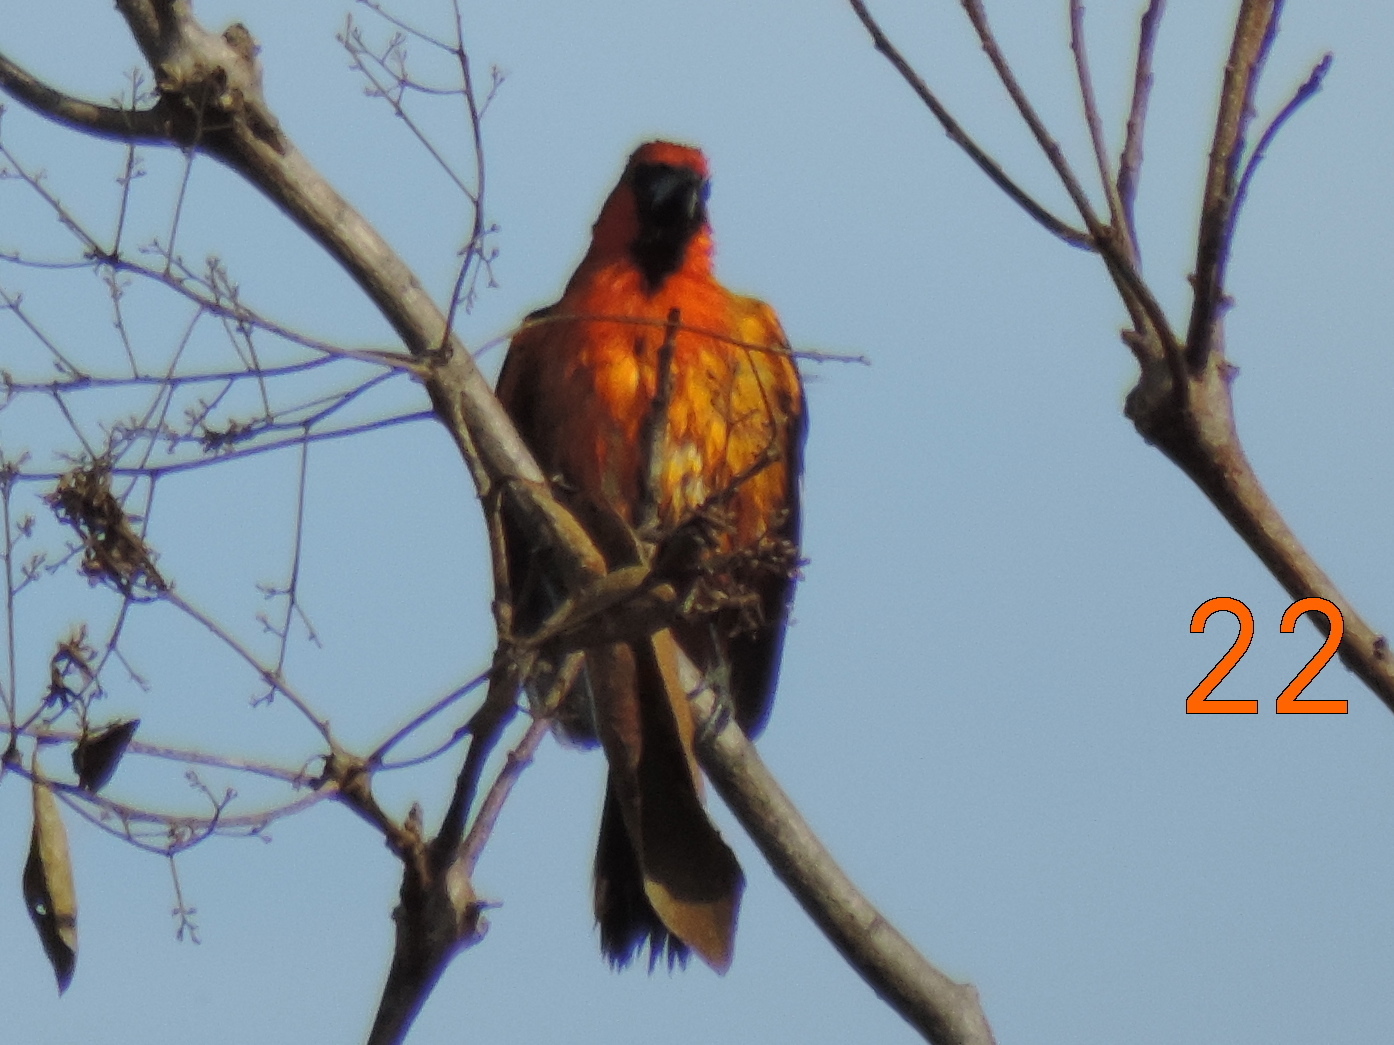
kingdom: Animalia
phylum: Chordata
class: Aves
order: Passeriformes
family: Icteridae
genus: Icterus
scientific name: Icterus pustulatus
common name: Streak-backed oriole
